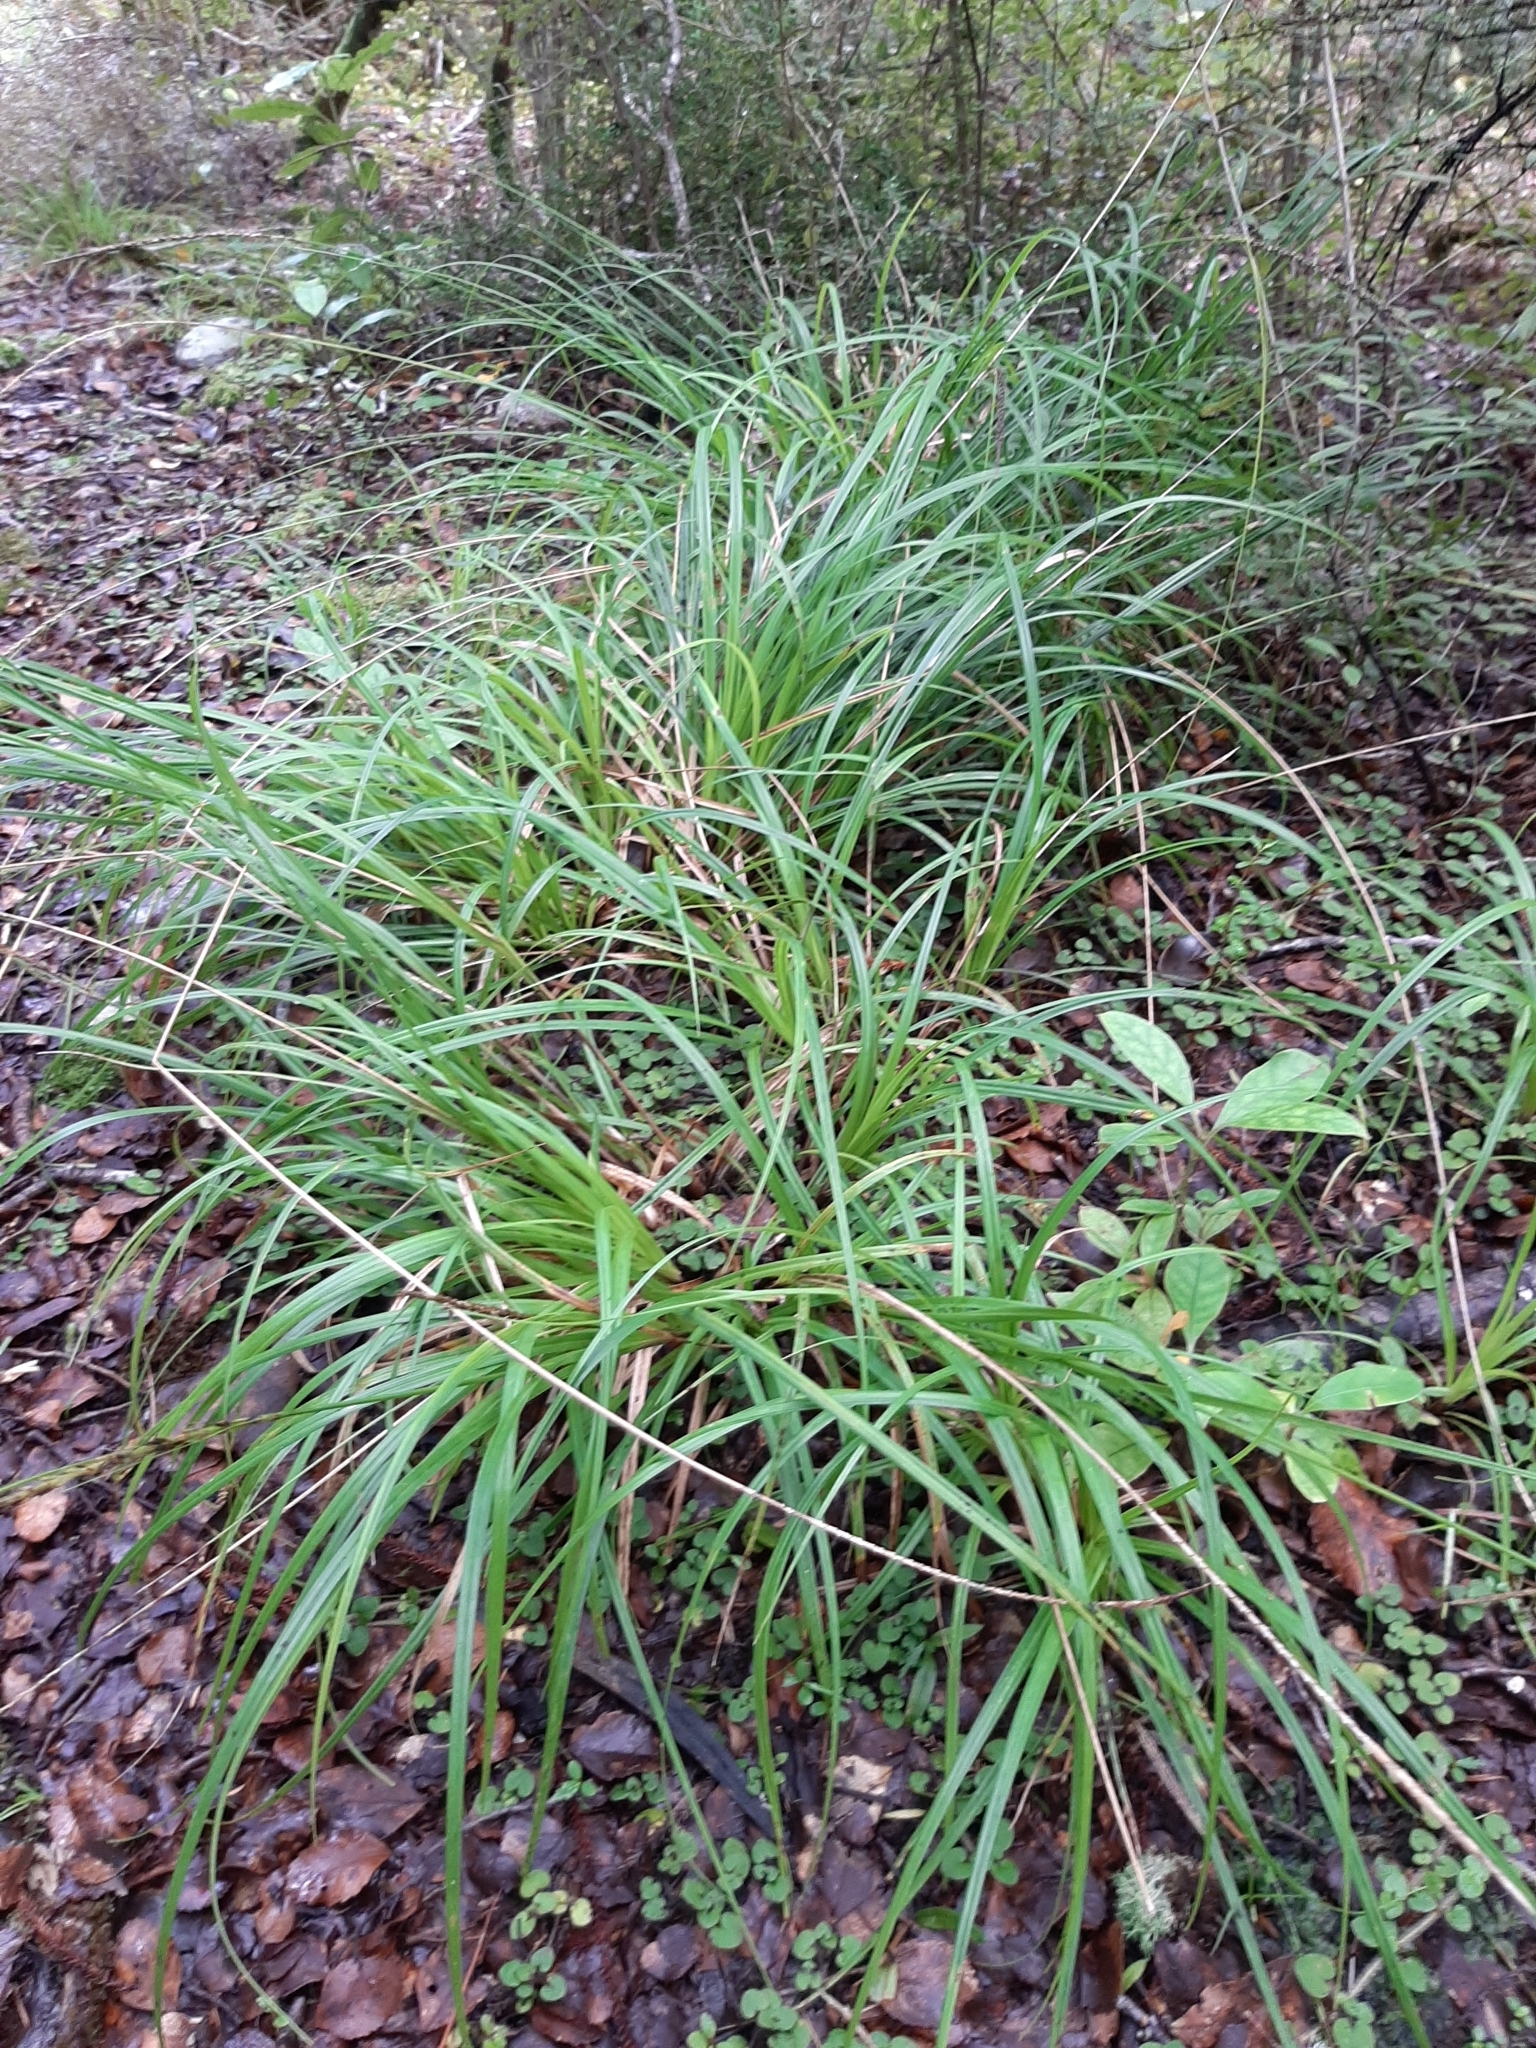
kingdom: Plantae
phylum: Tracheophyta
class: Liliopsida
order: Poales
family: Cyperaceae
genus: Carex
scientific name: Carex uncinata
